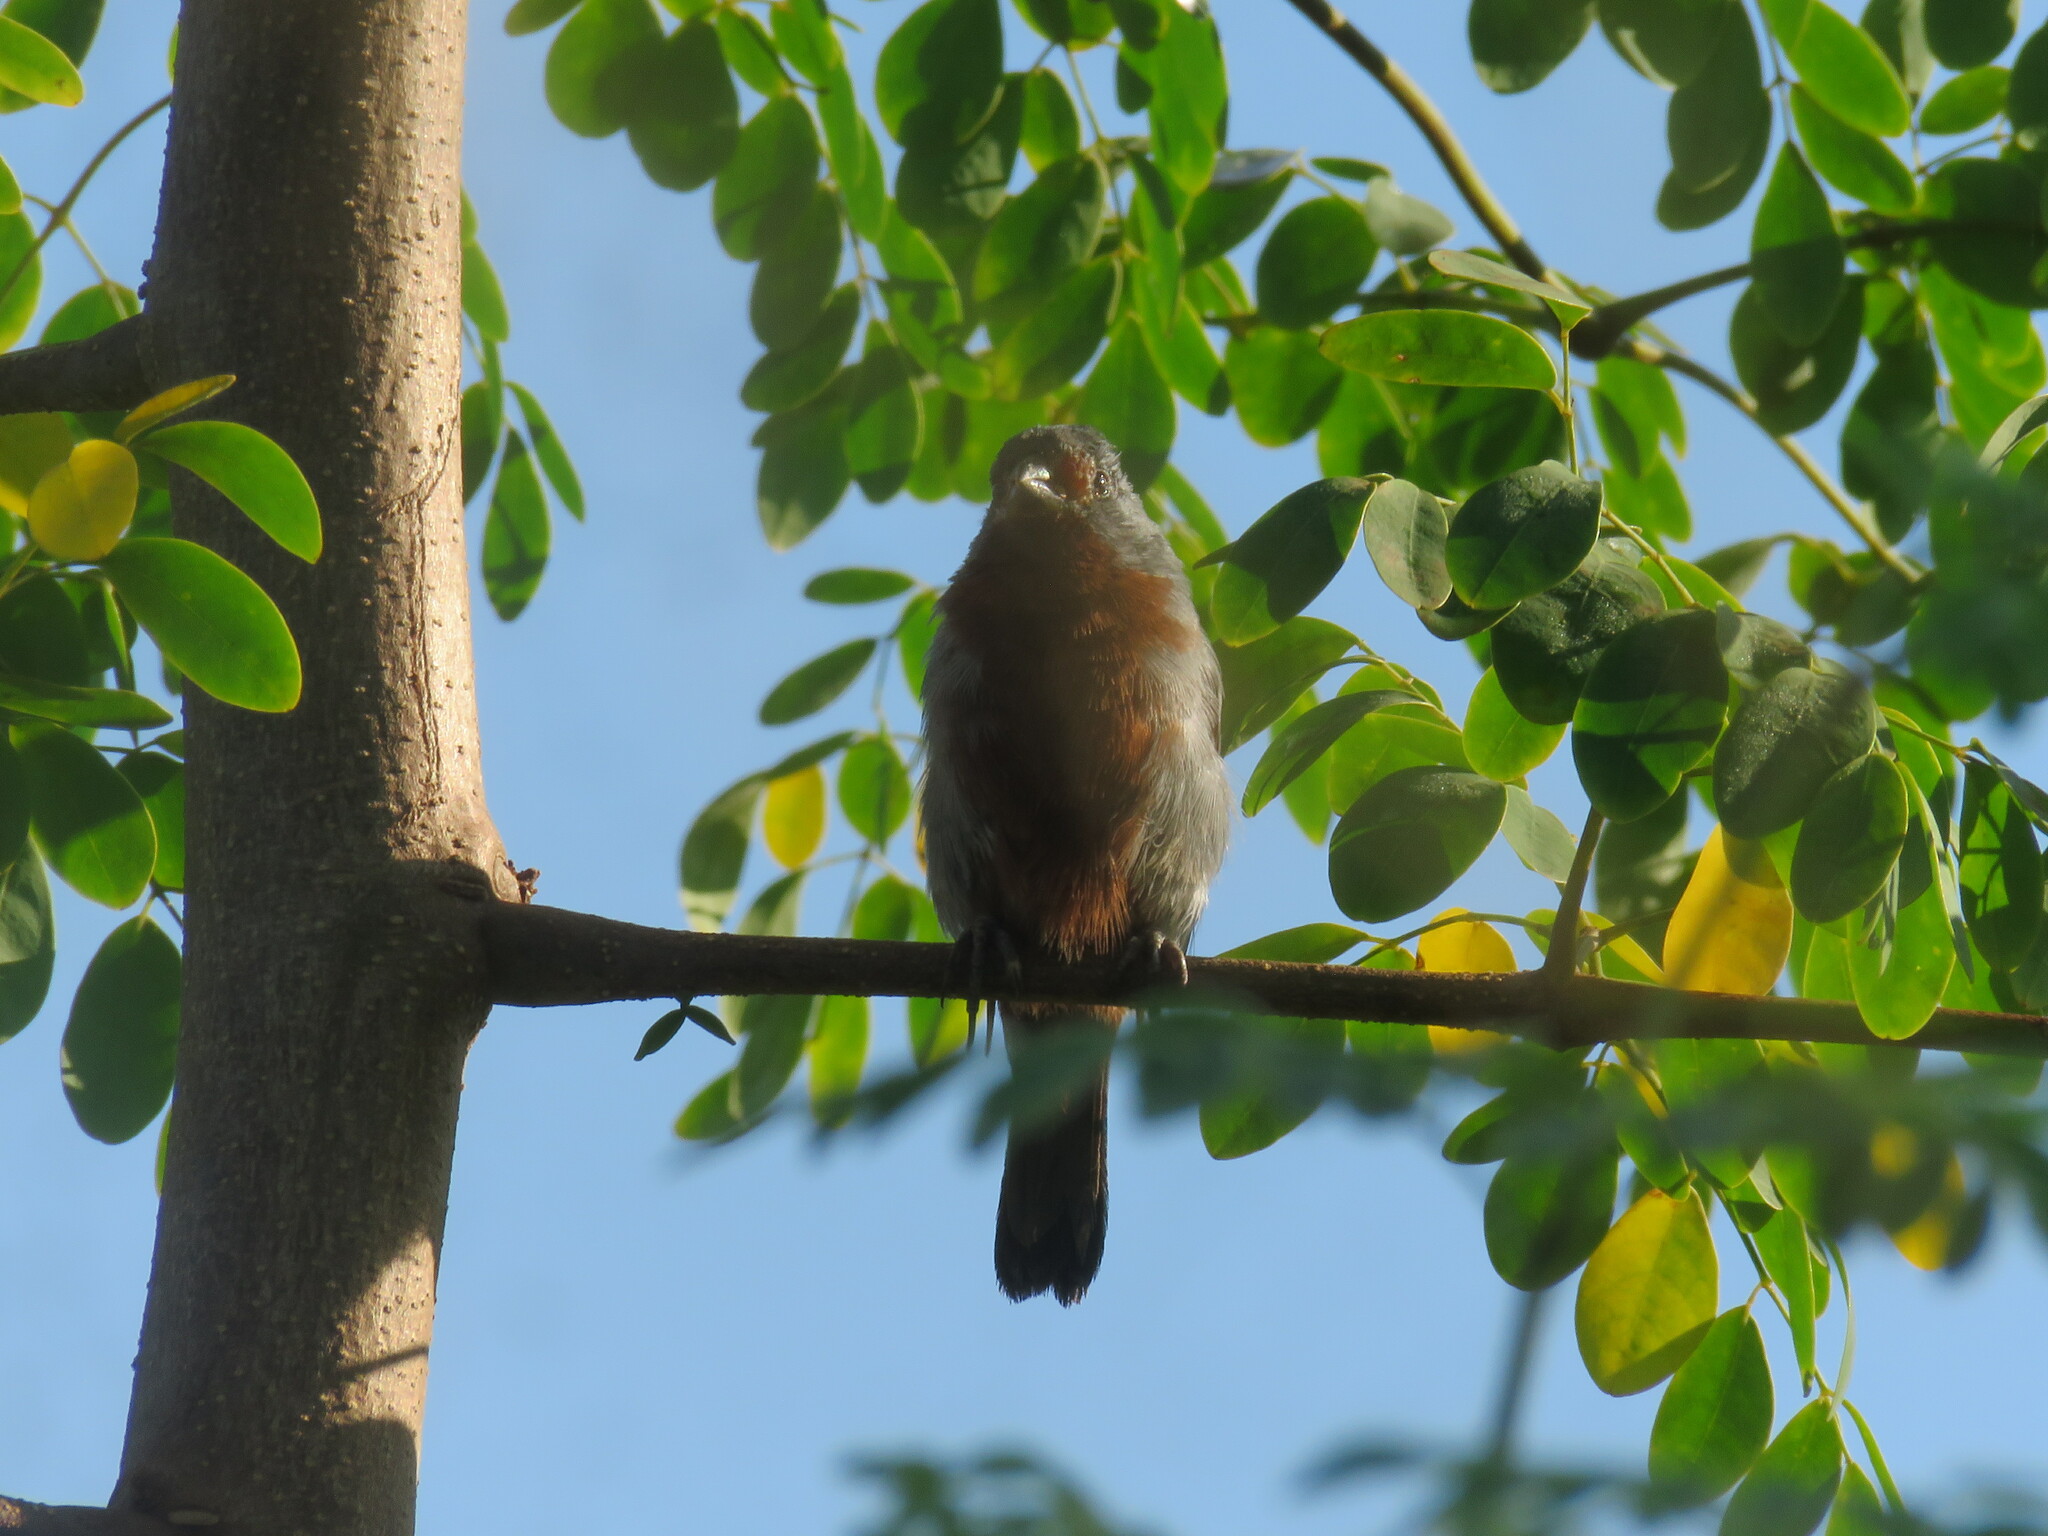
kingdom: Animalia
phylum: Chordata
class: Aves
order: Passeriformes
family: Thraupidae
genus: Sporophila
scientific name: Sporophila castaneiventris
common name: Chestnut-bellied seedeater
